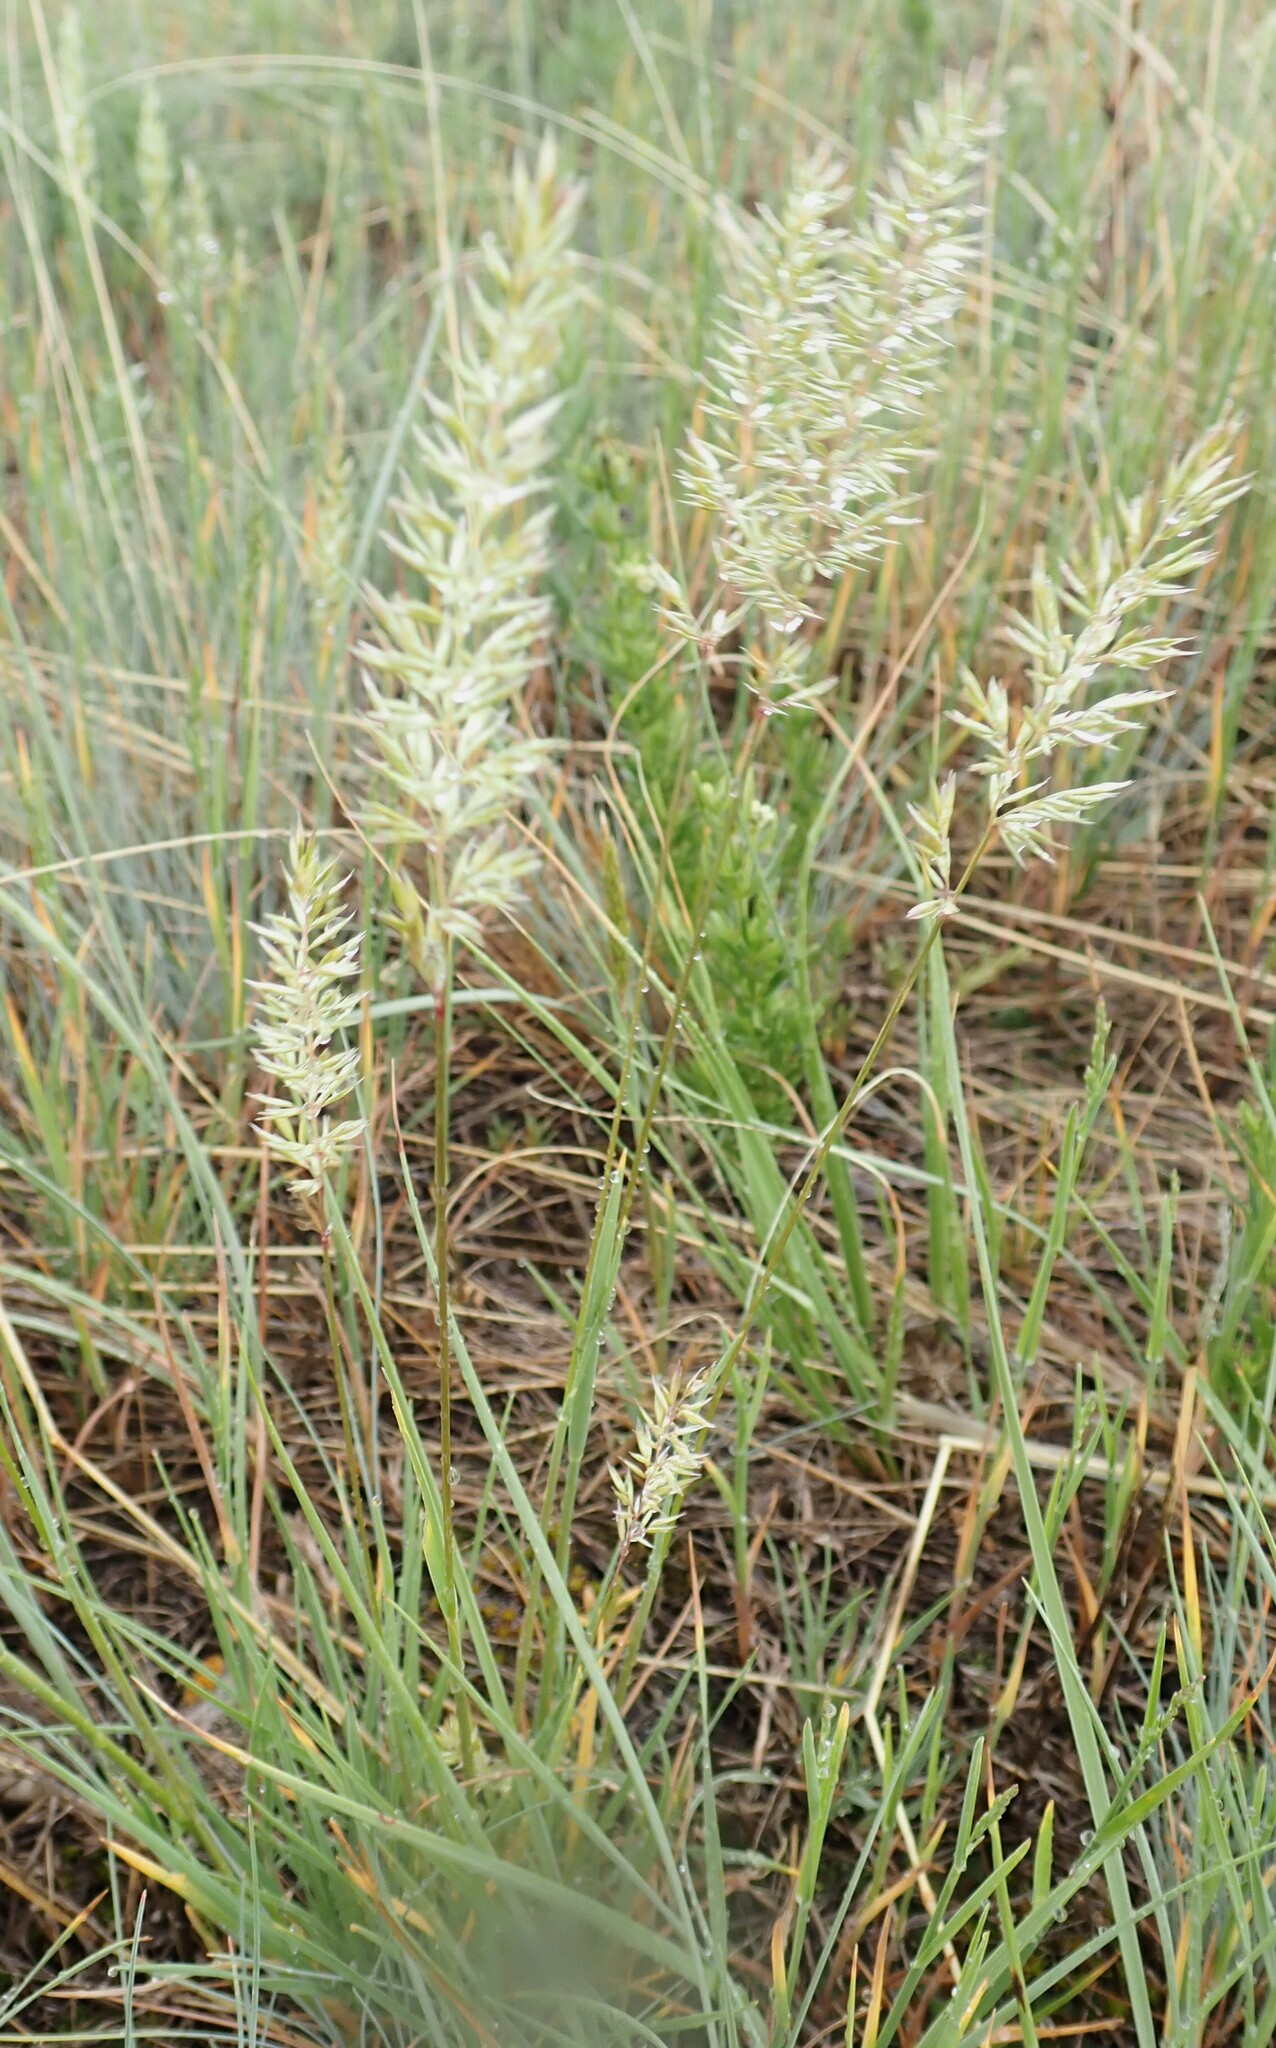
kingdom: Plantae
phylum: Tracheophyta
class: Liliopsida
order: Poales
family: Poaceae
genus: Koeleria
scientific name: Koeleria macrantha
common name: Crested hair-grass
